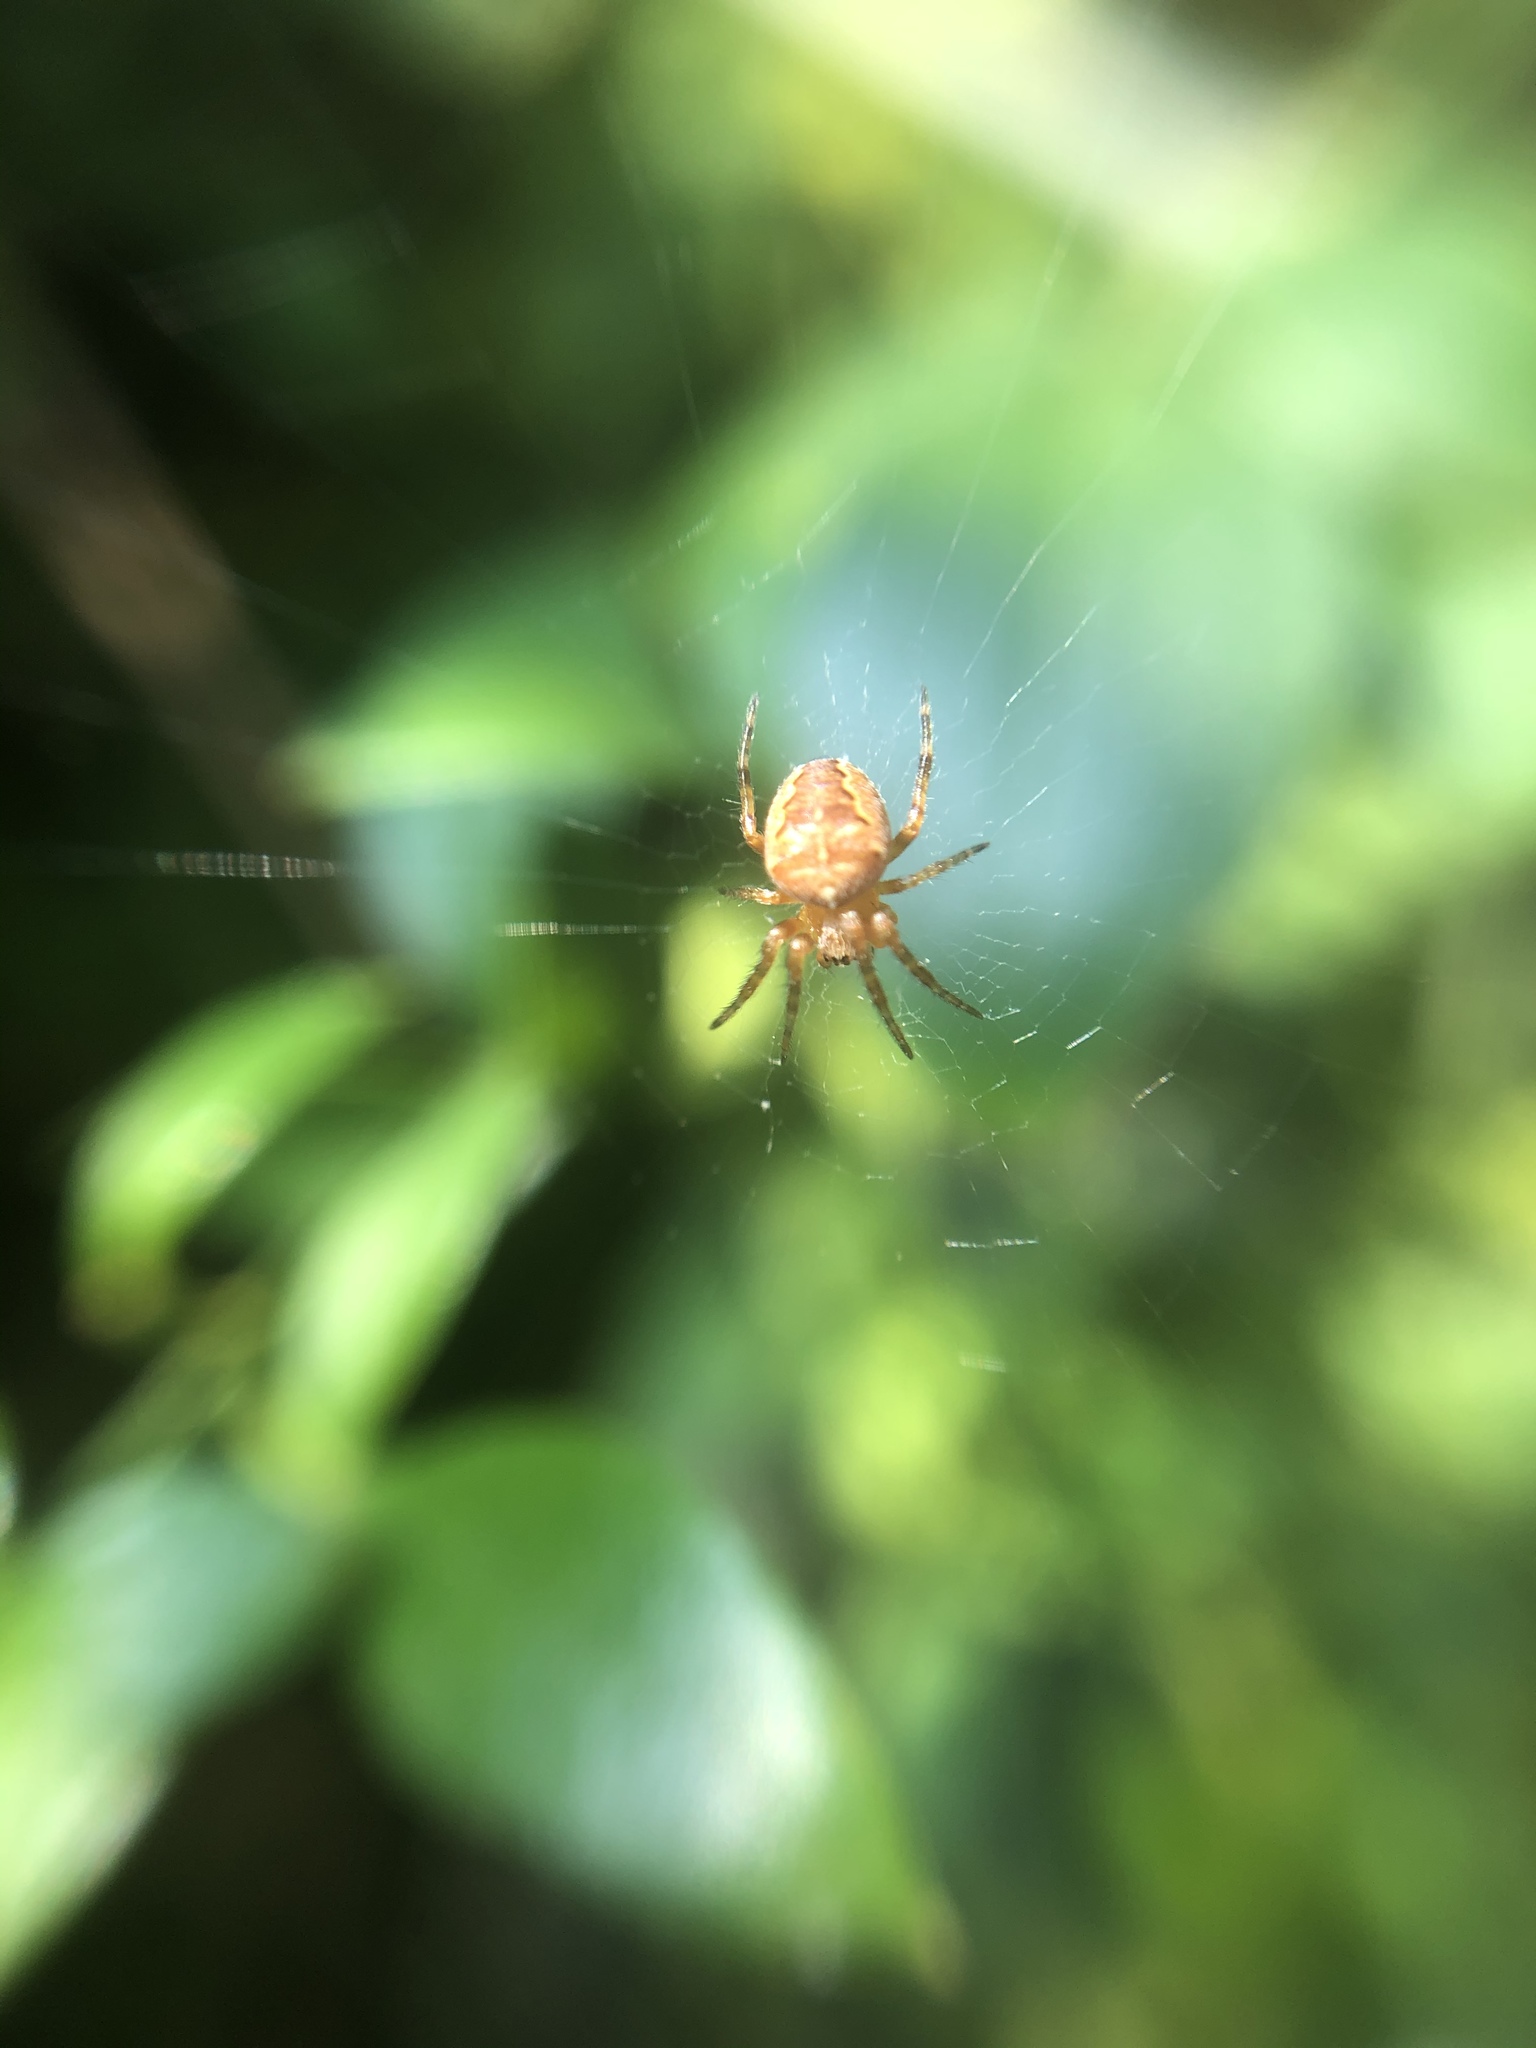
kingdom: Animalia
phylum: Arthropoda
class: Arachnida
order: Araneae
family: Araneidae
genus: Araneus
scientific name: Araneus diadematus
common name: Cross orbweaver
